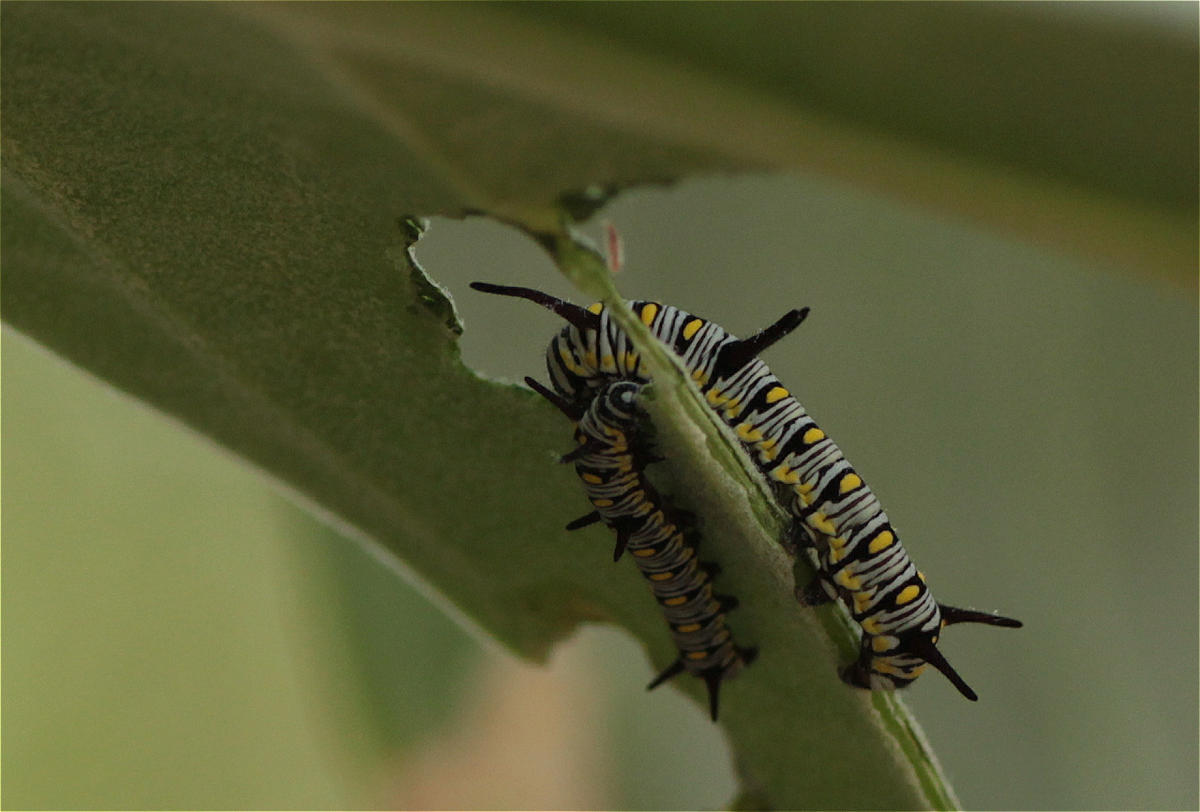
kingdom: Animalia
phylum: Arthropoda
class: Insecta
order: Lepidoptera
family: Nymphalidae
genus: Danaus
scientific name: Danaus chrysippus
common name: Plain tiger
